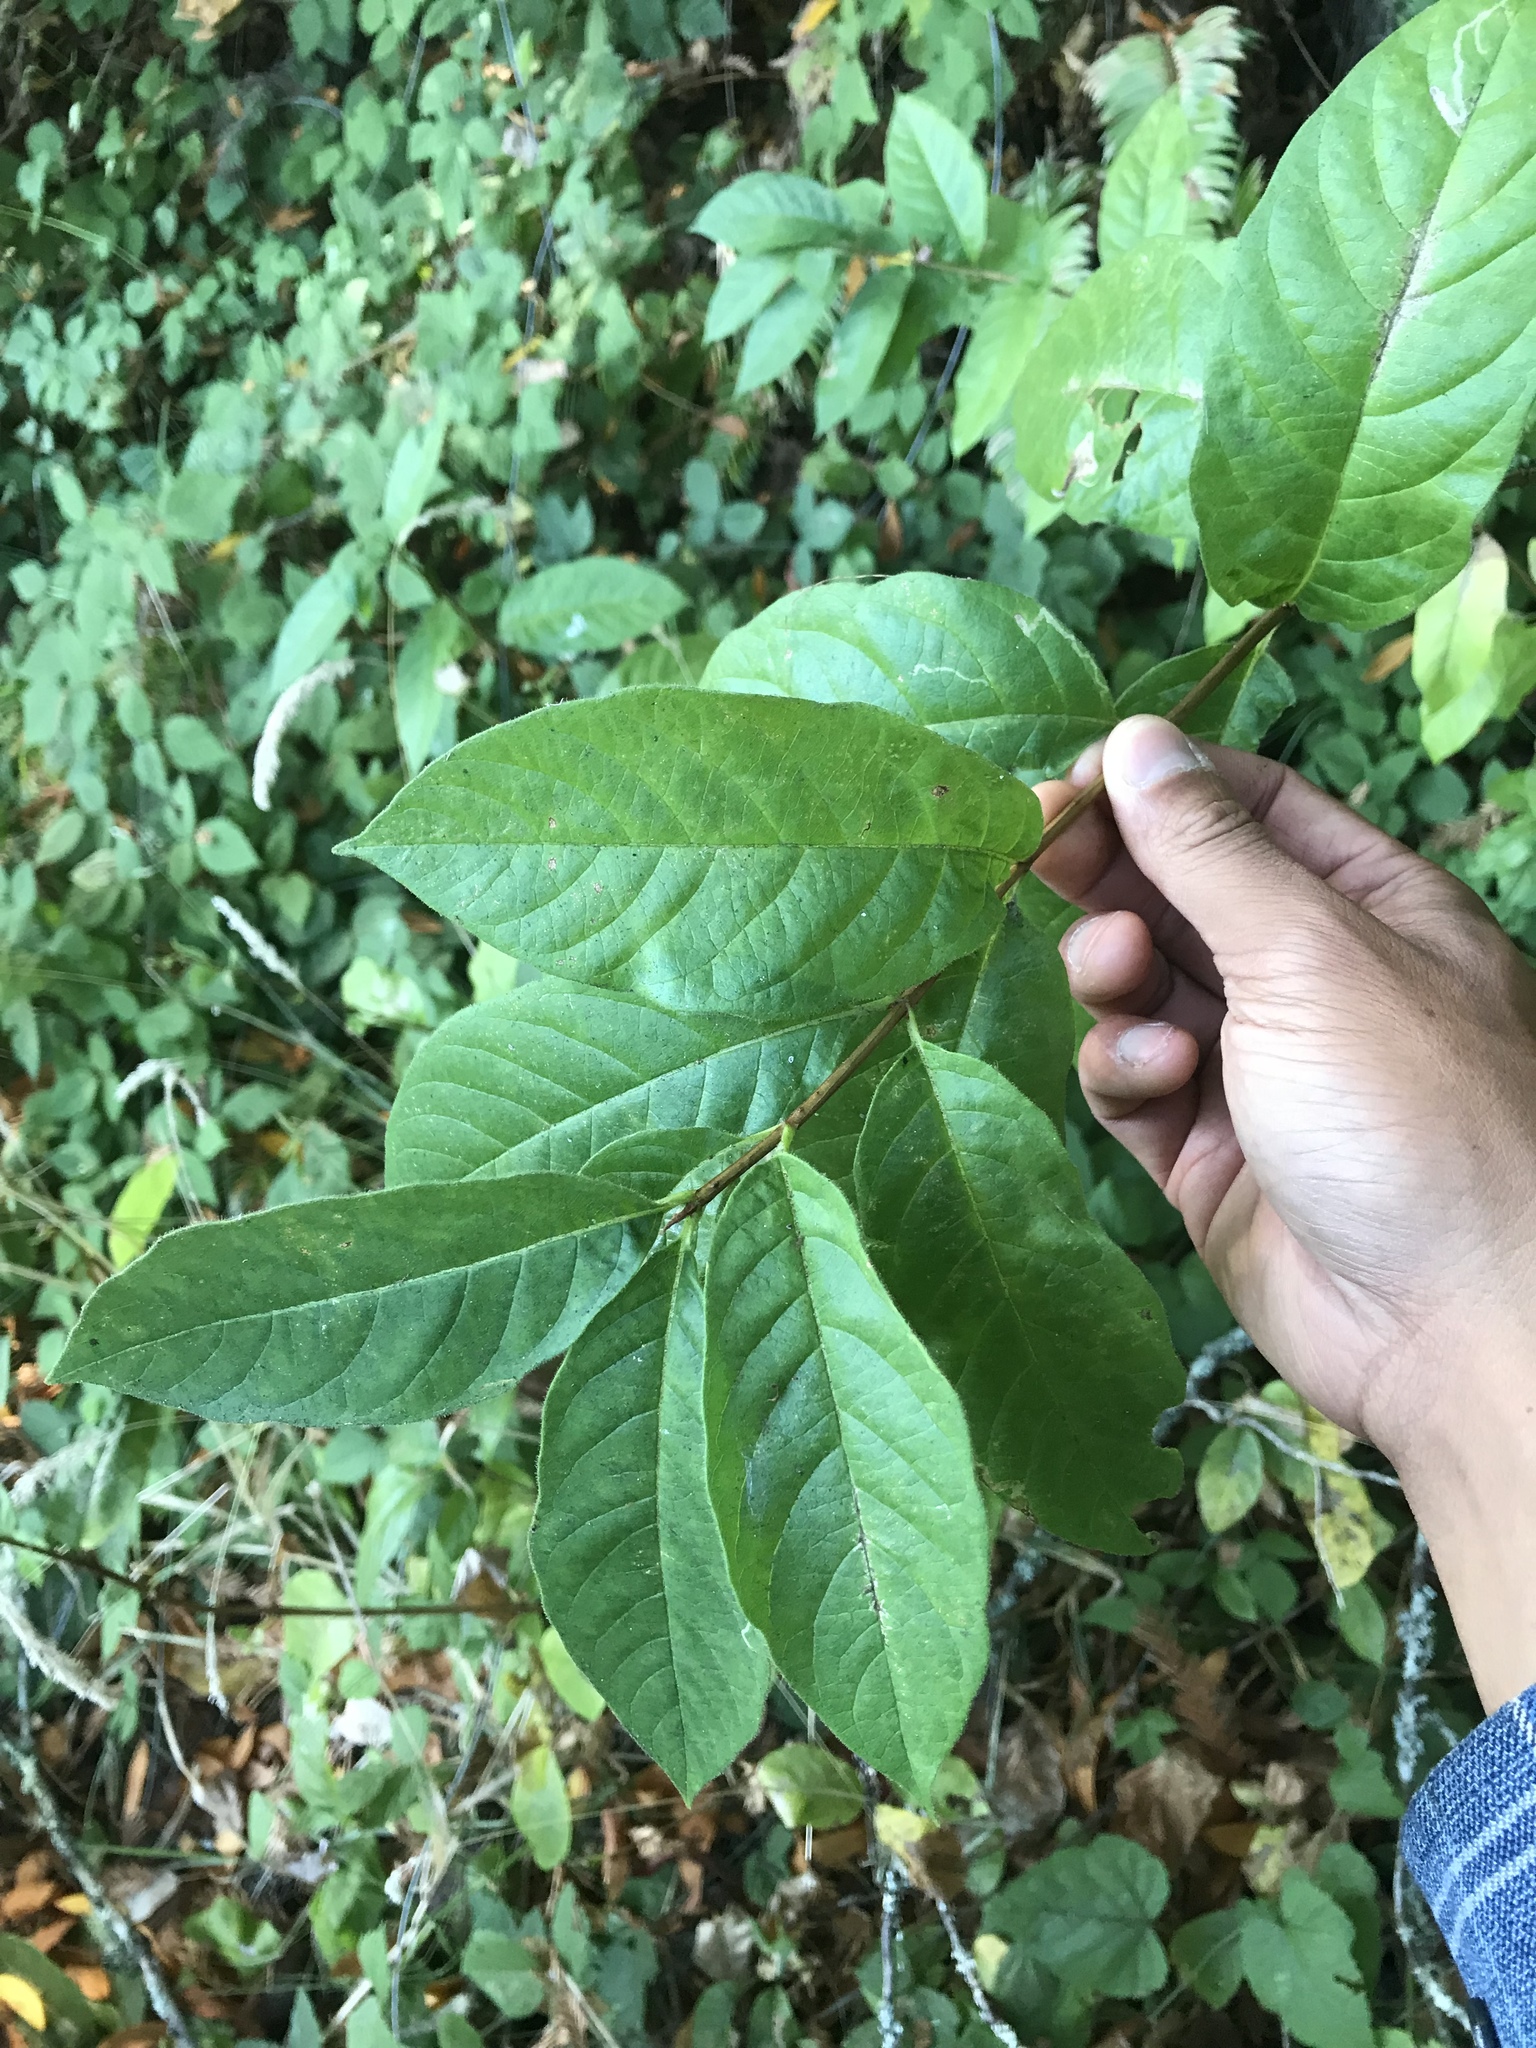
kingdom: Plantae
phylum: Tracheophyta
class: Magnoliopsida
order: Laurales
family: Calycanthaceae
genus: Calycanthus
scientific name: Calycanthus occidentalis
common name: California spicebush
